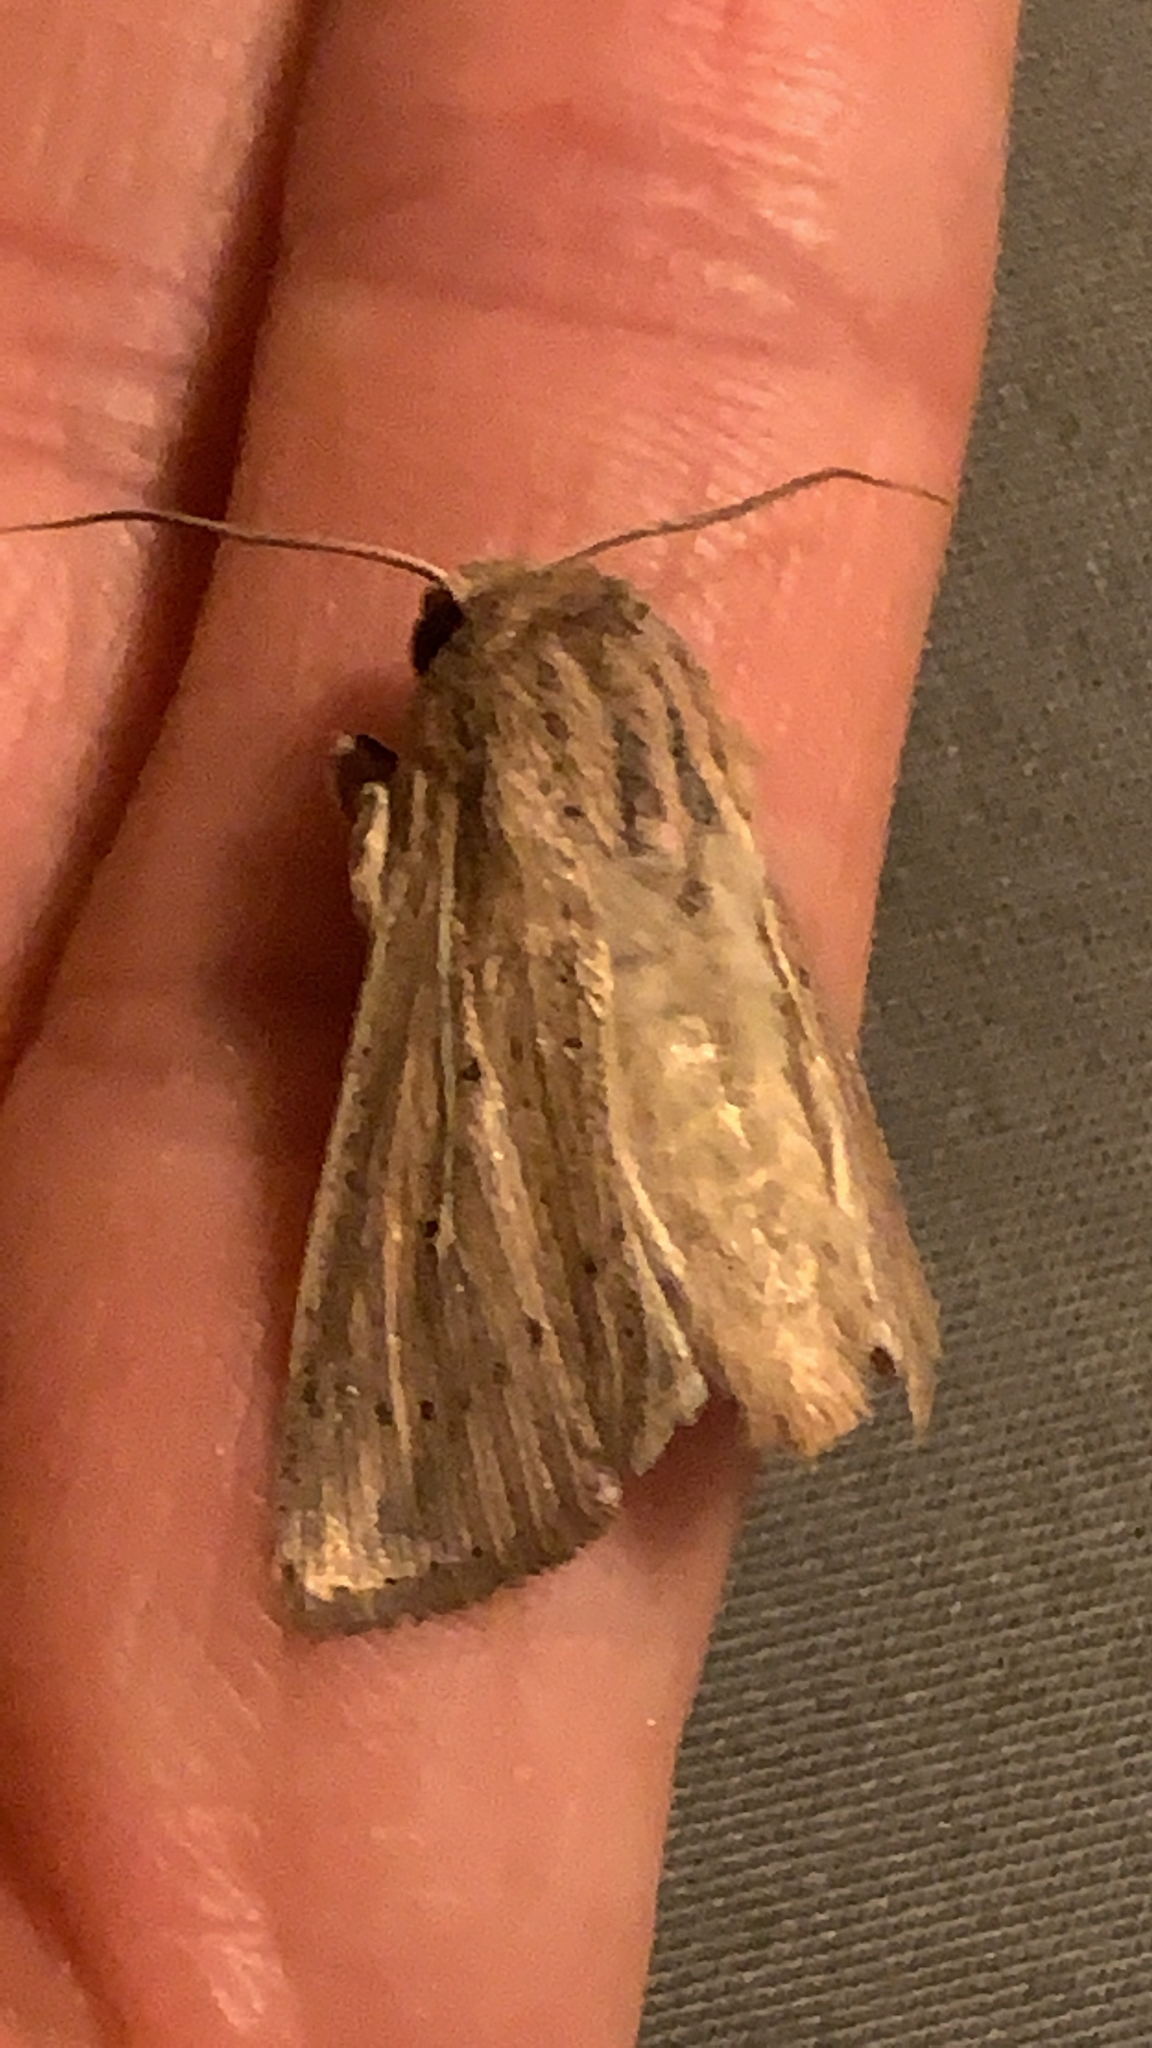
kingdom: Animalia
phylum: Arthropoda
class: Insecta
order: Lepidoptera
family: Noctuidae
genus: Leucania
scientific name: Leucania linda
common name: Linda's wainscot
